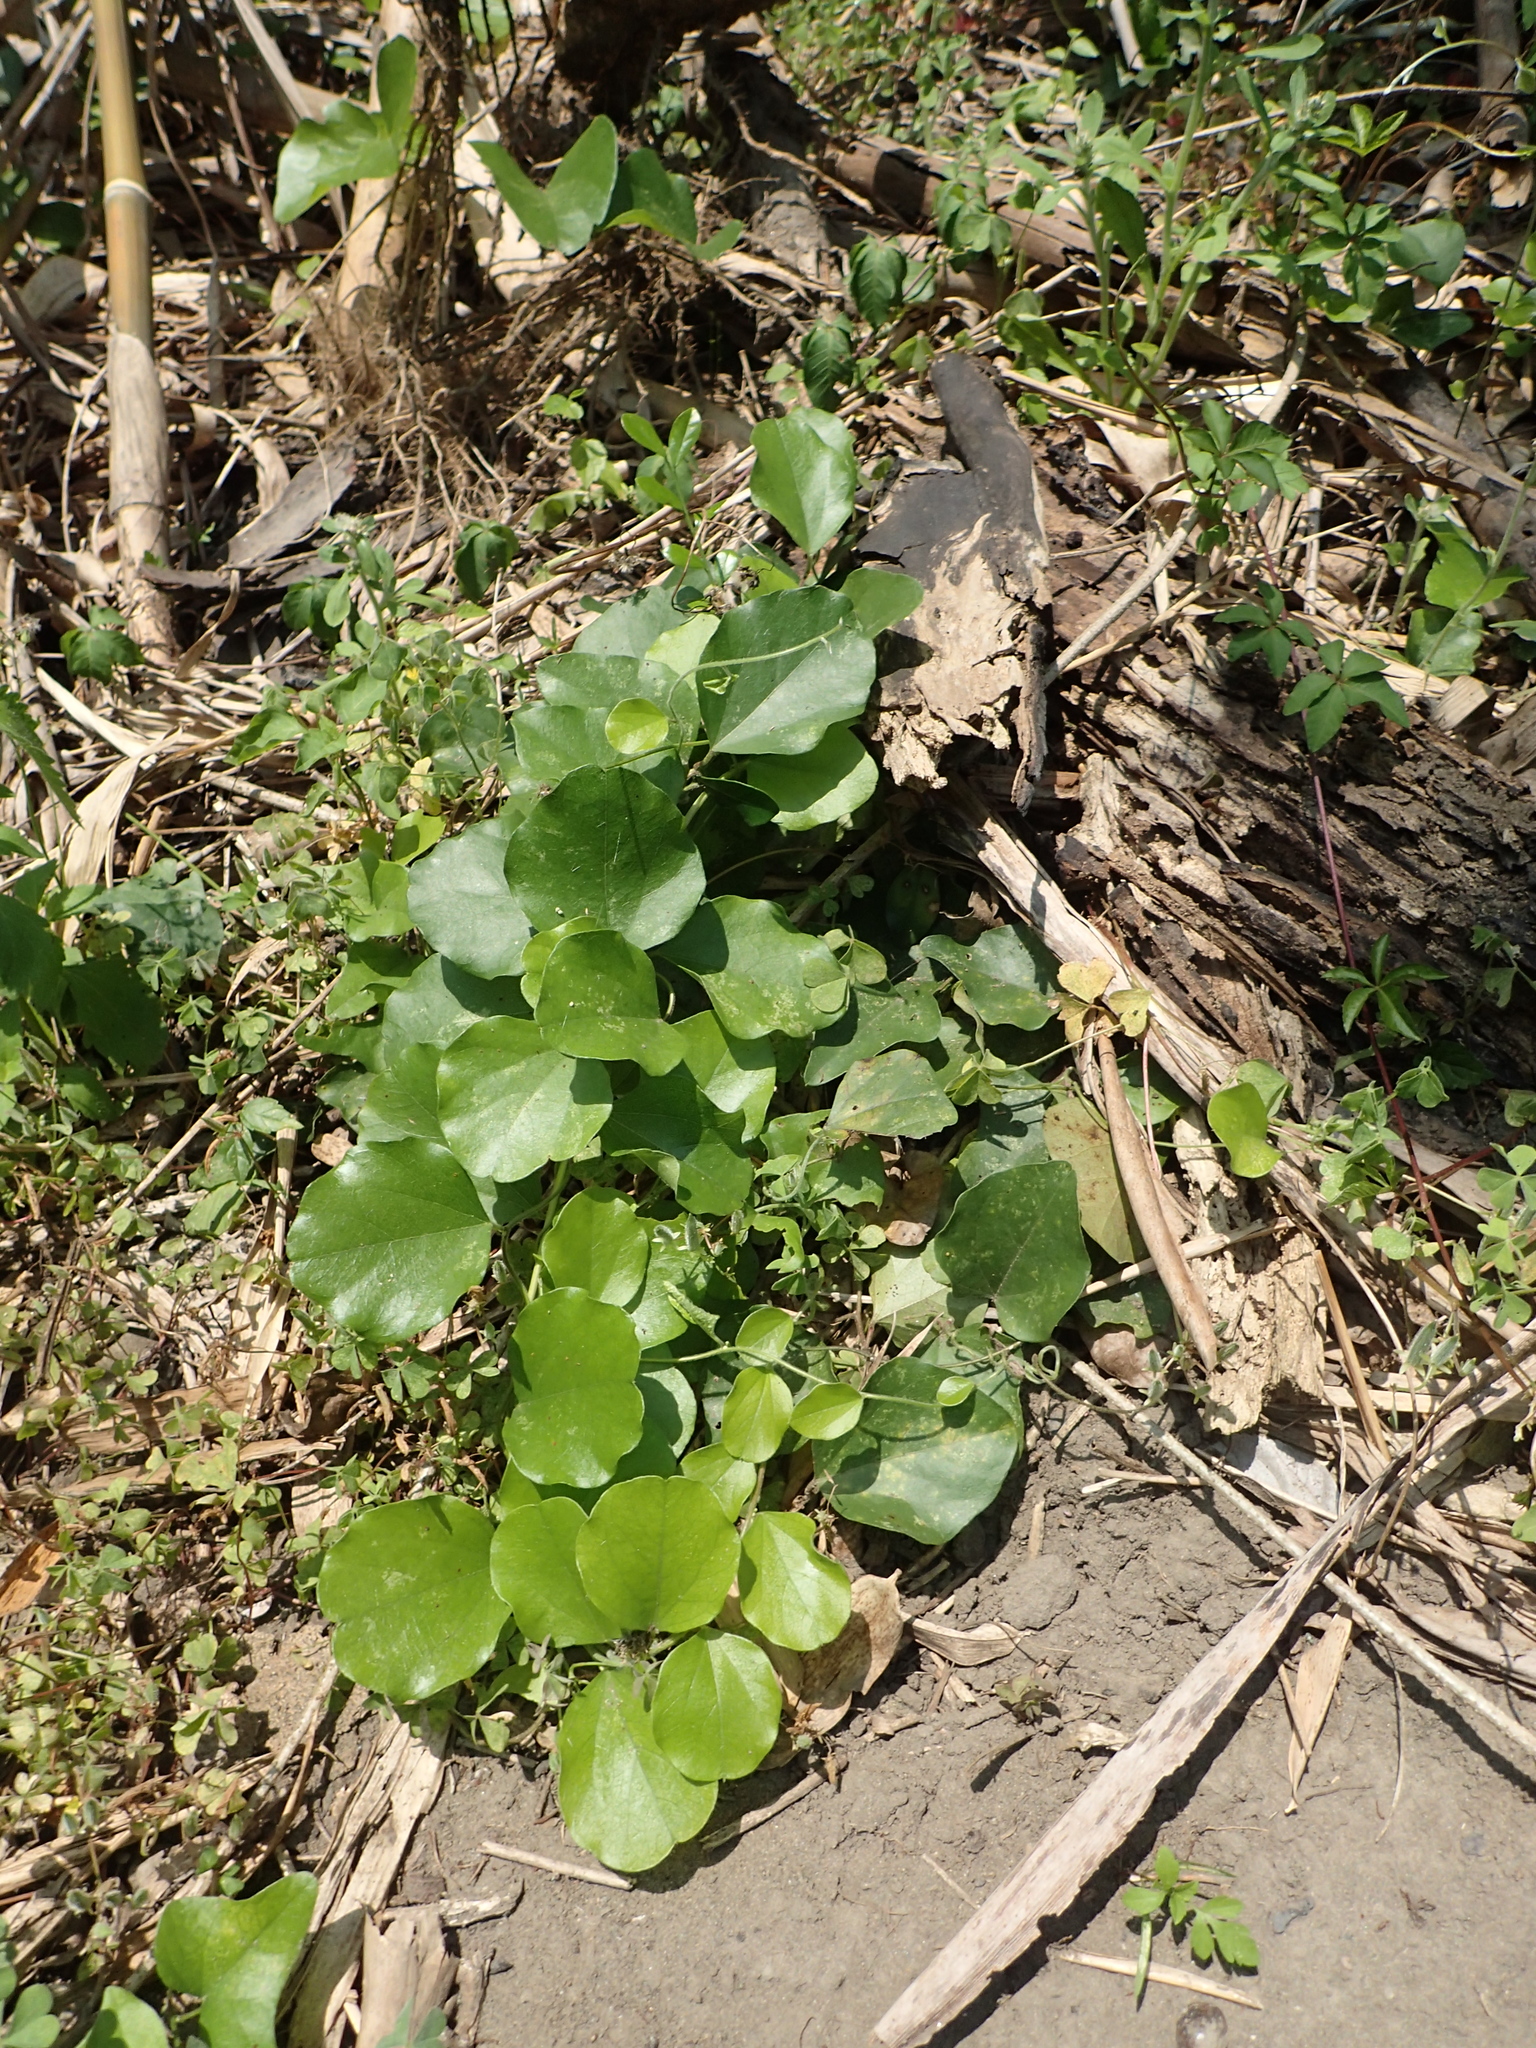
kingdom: Plantae
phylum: Tracheophyta
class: Magnoliopsida
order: Ranunculales
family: Menispermaceae
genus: Cocculus
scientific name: Cocculus orbiculatus
